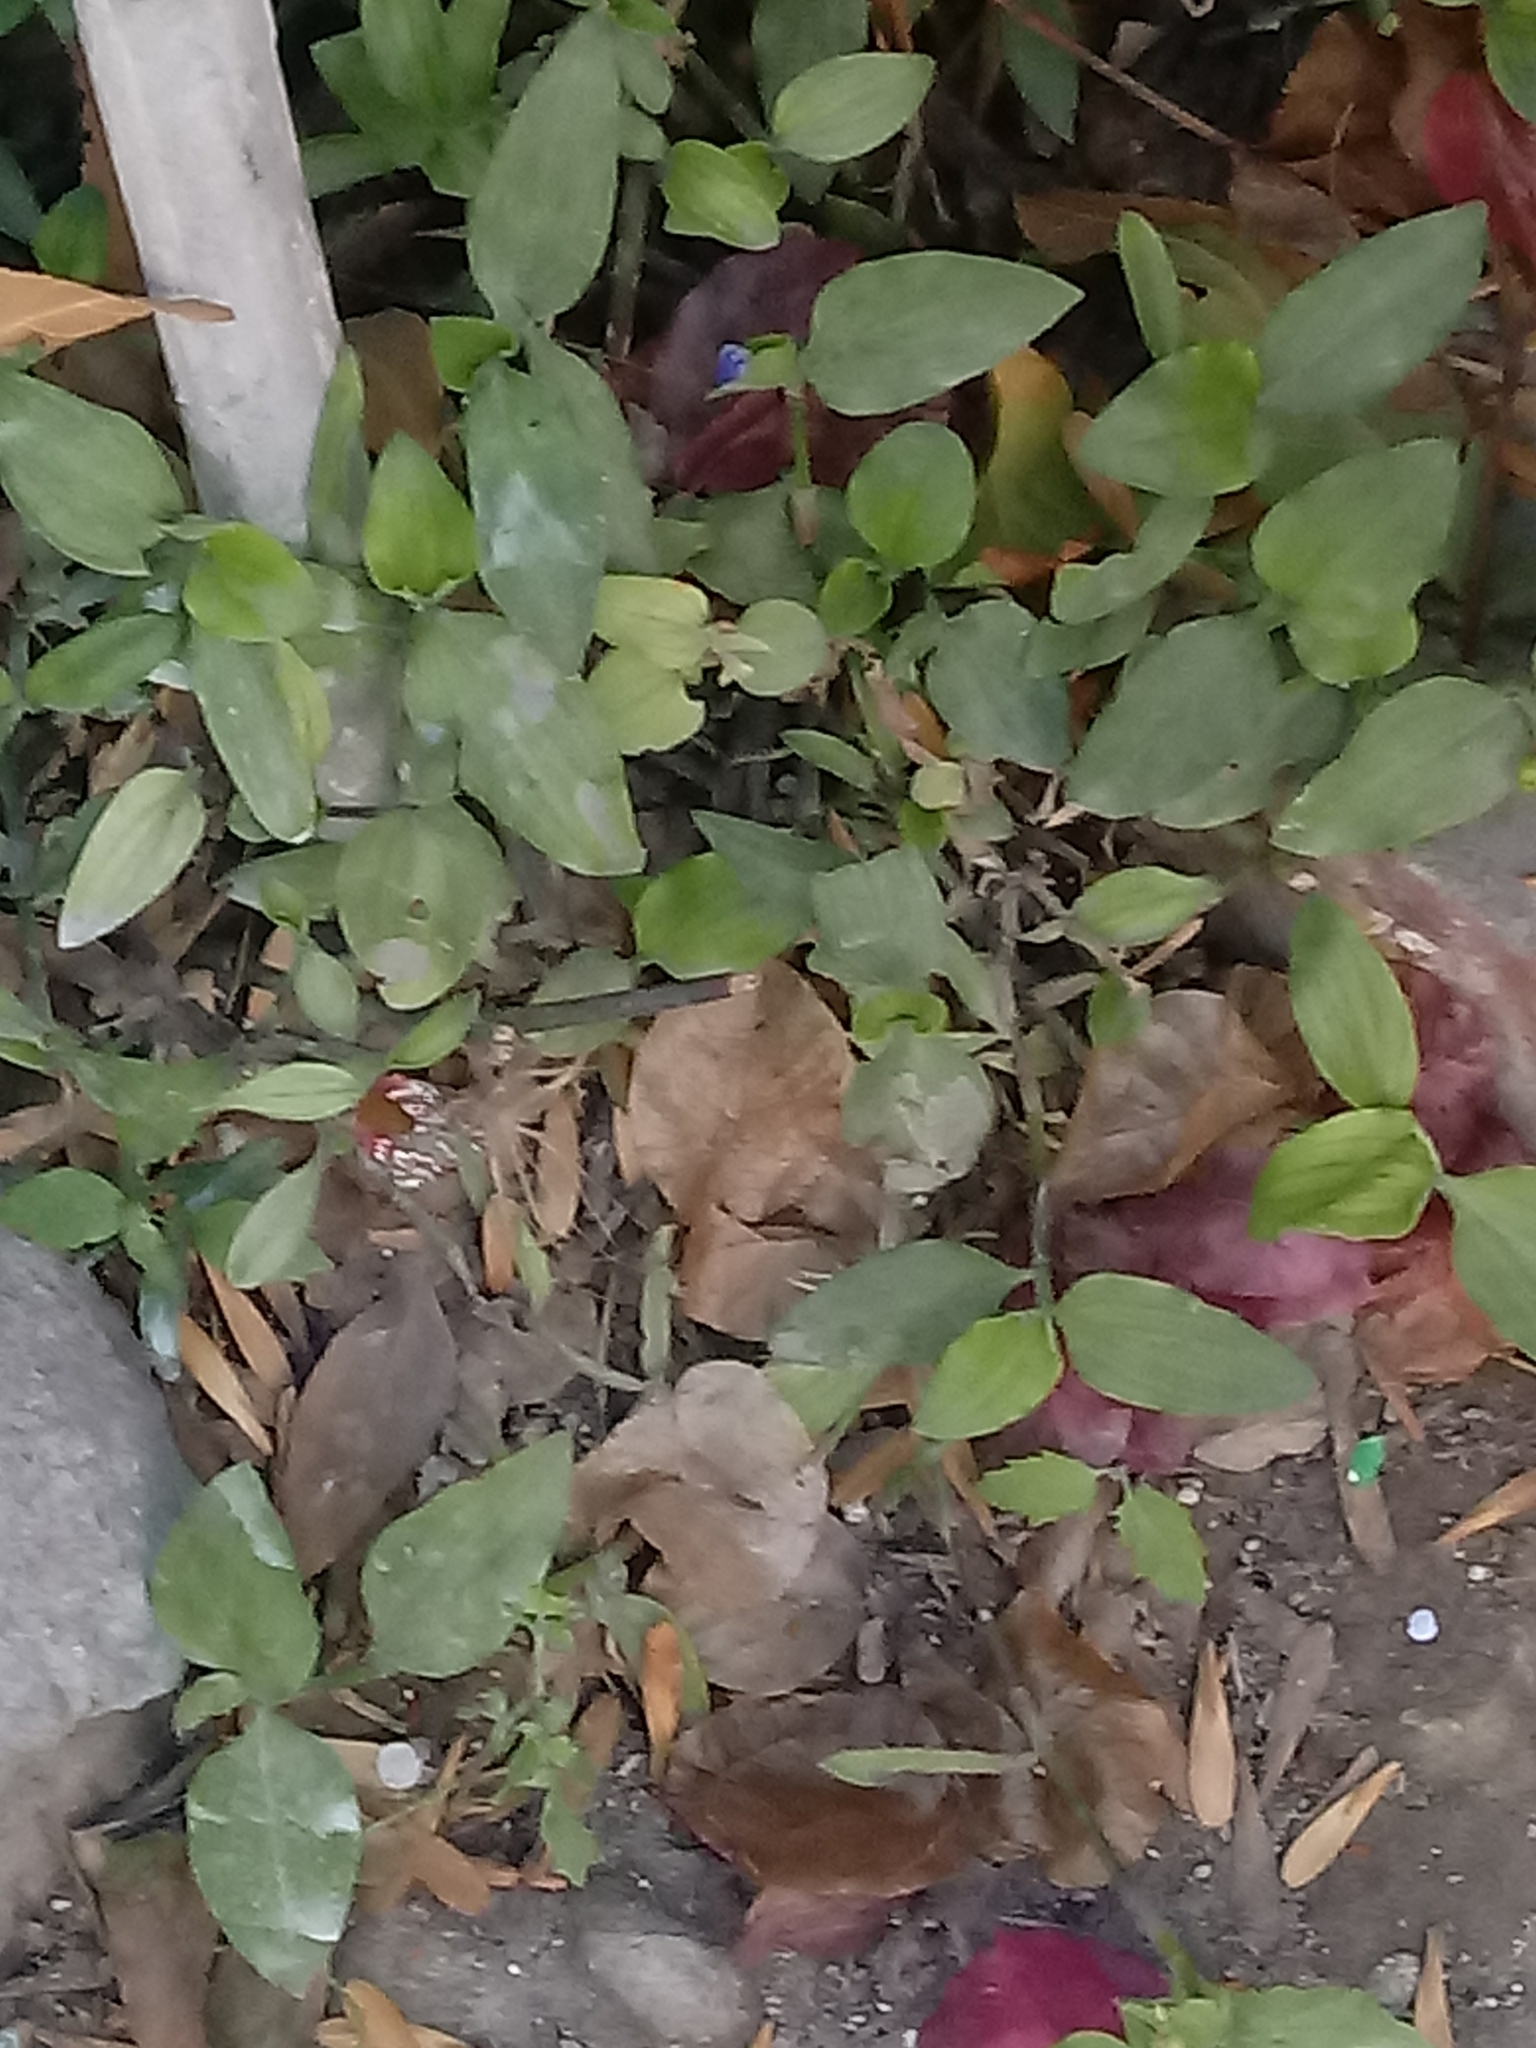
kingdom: Plantae
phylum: Tracheophyta
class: Liliopsida
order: Commelinales
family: Commelinaceae
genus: Commelina
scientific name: Commelina benghalensis
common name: Jio
